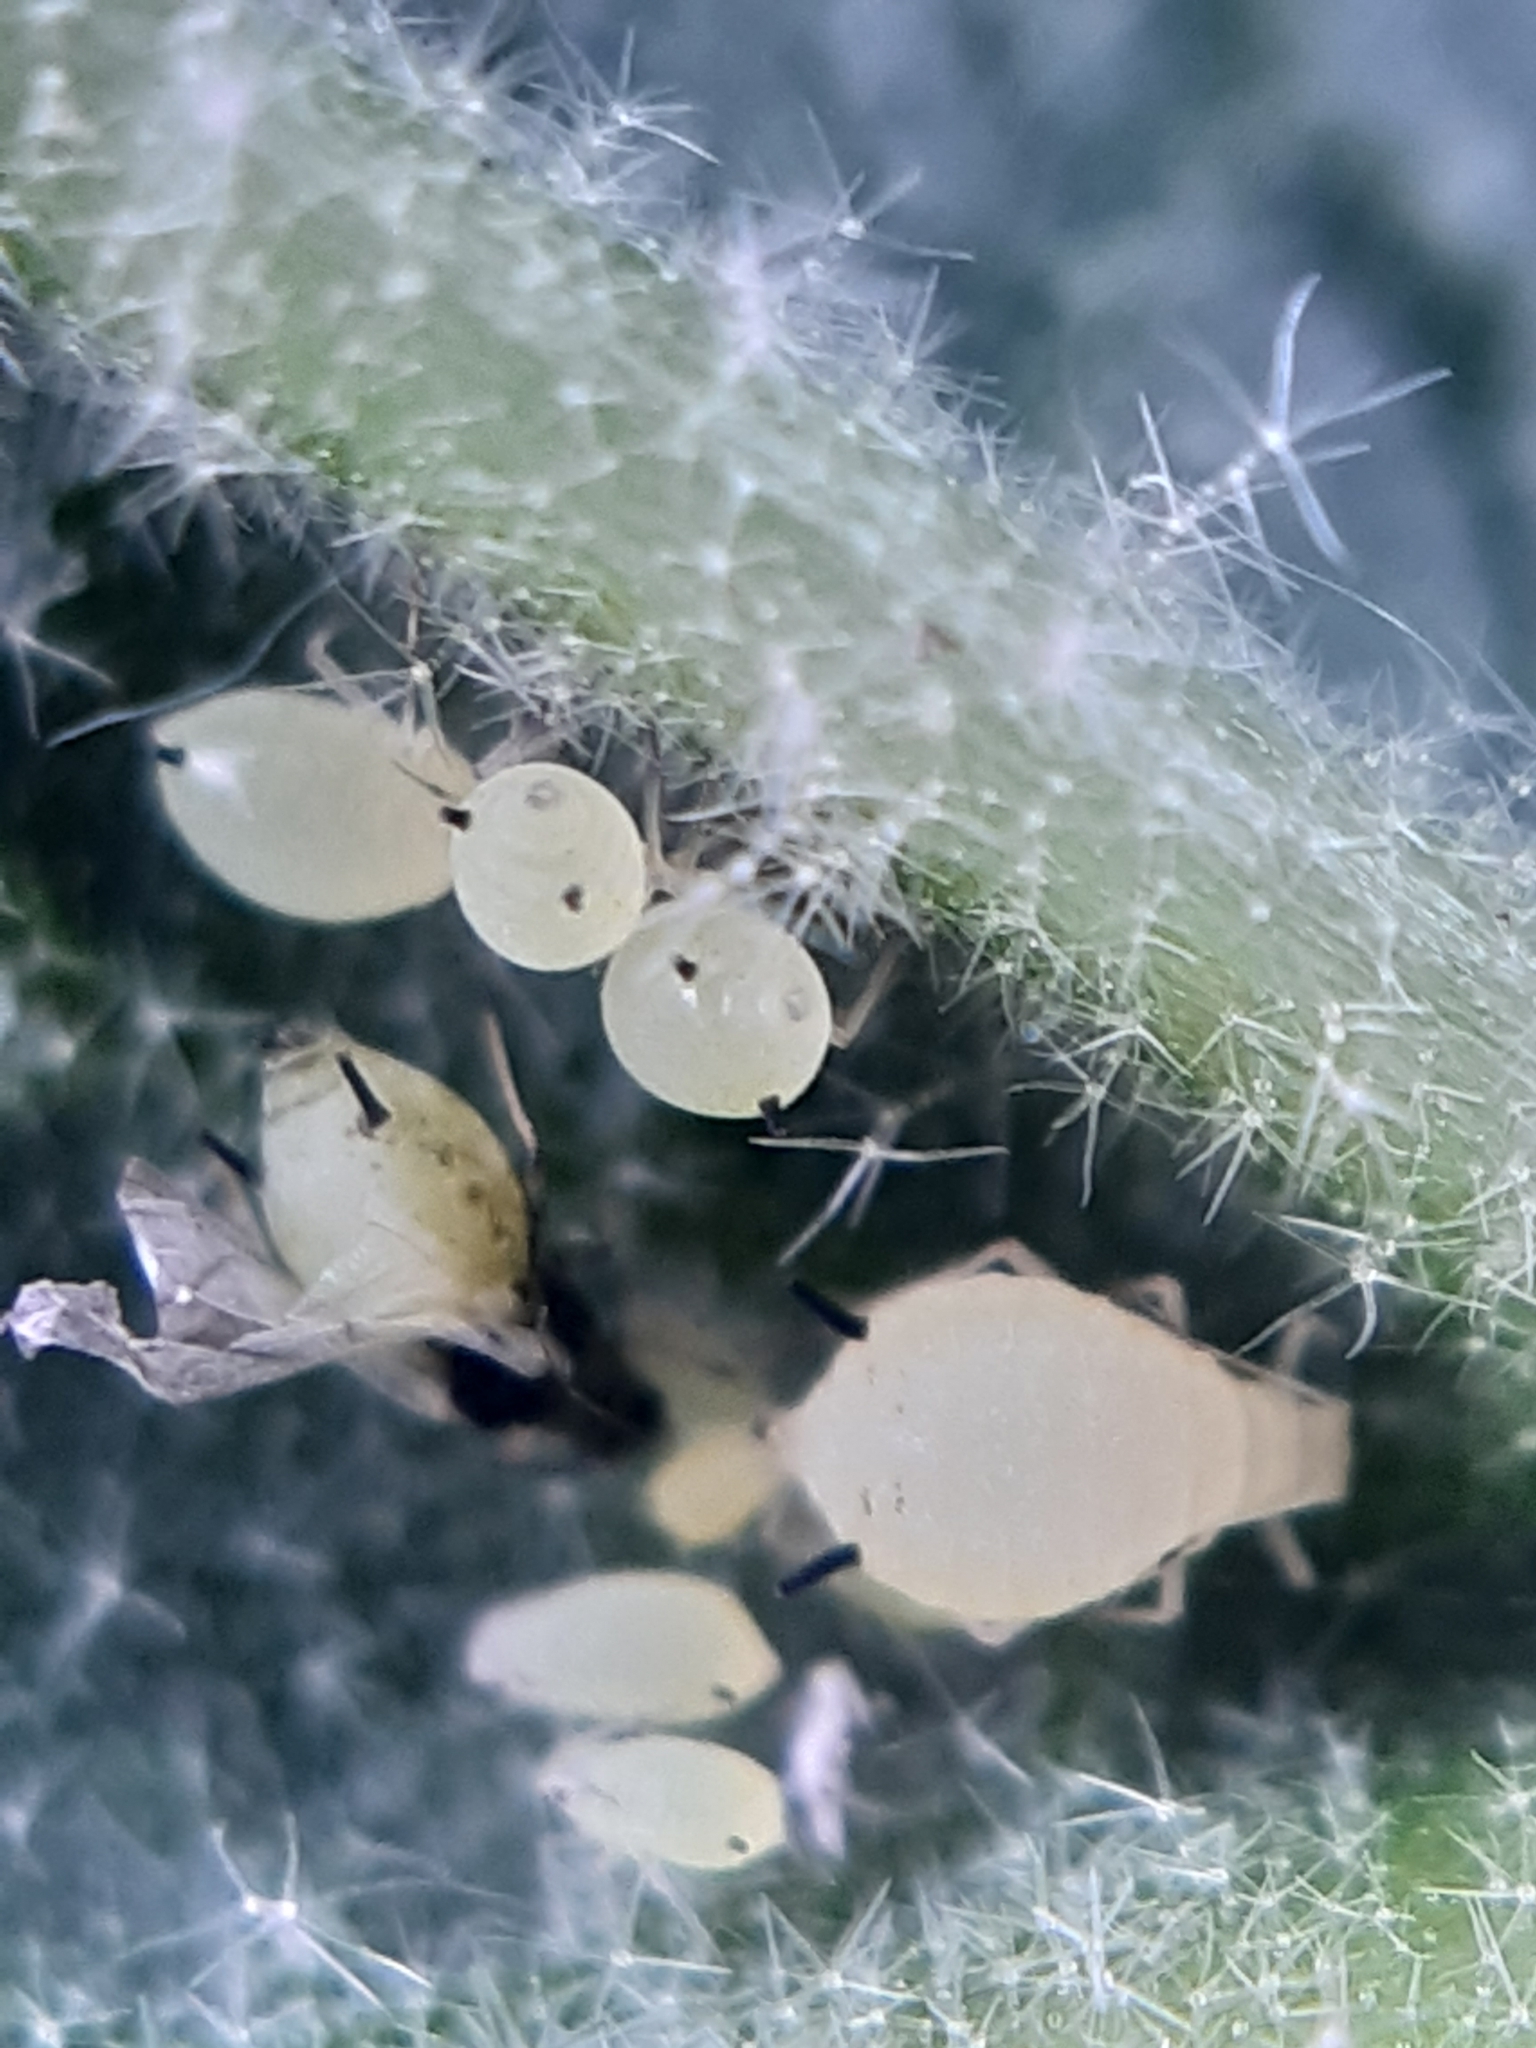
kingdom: Animalia
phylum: Arthropoda
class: Insecta
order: Hemiptera
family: Aphididae
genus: Aphis
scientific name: Aphis verbasci
